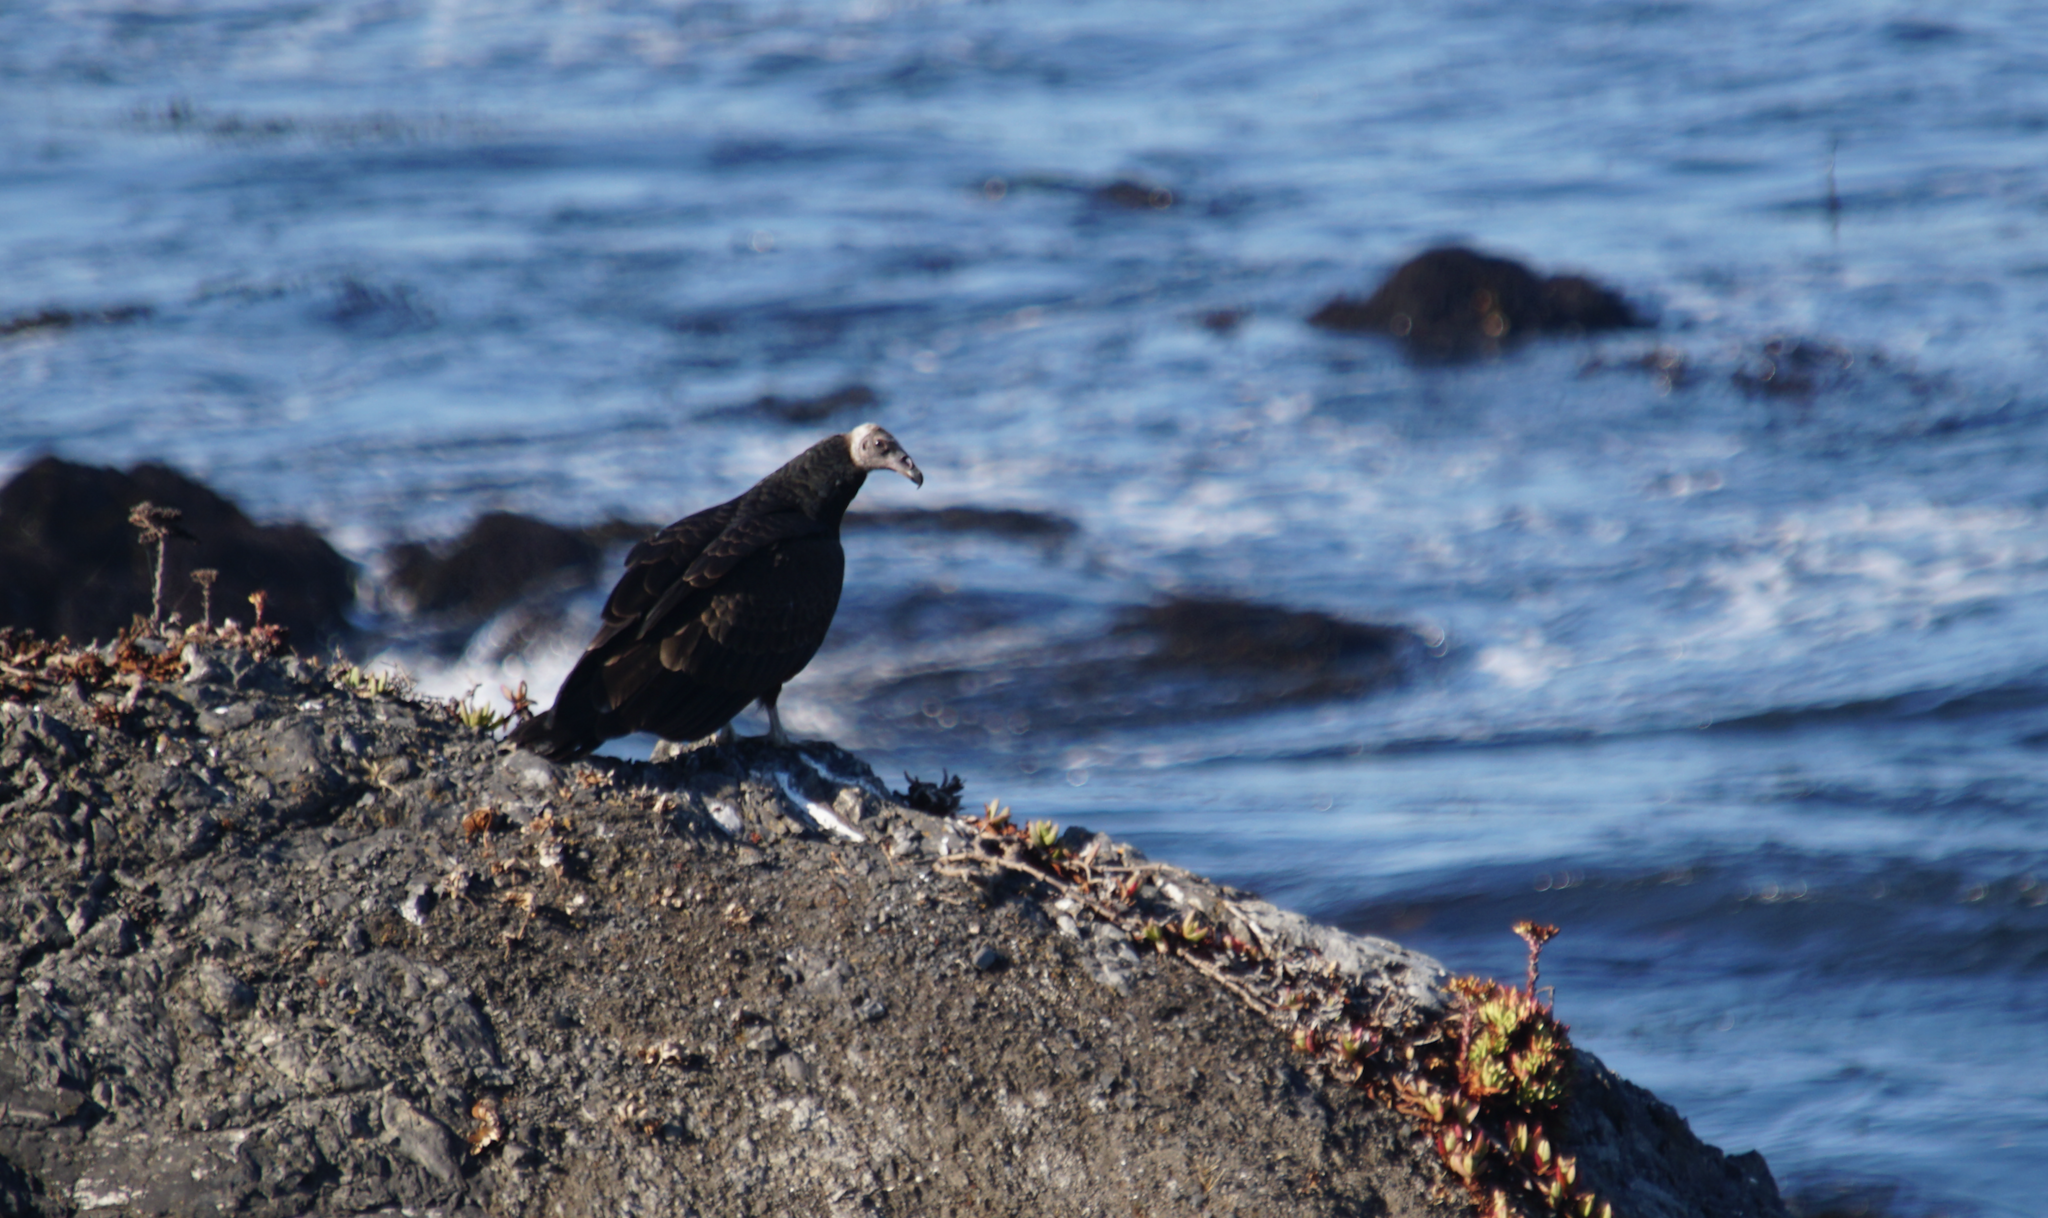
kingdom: Animalia
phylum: Chordata
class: Aves
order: Accipitriformes
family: Cathartidae
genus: Cathartes
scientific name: Cathartes aura
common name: Turkey vulture
